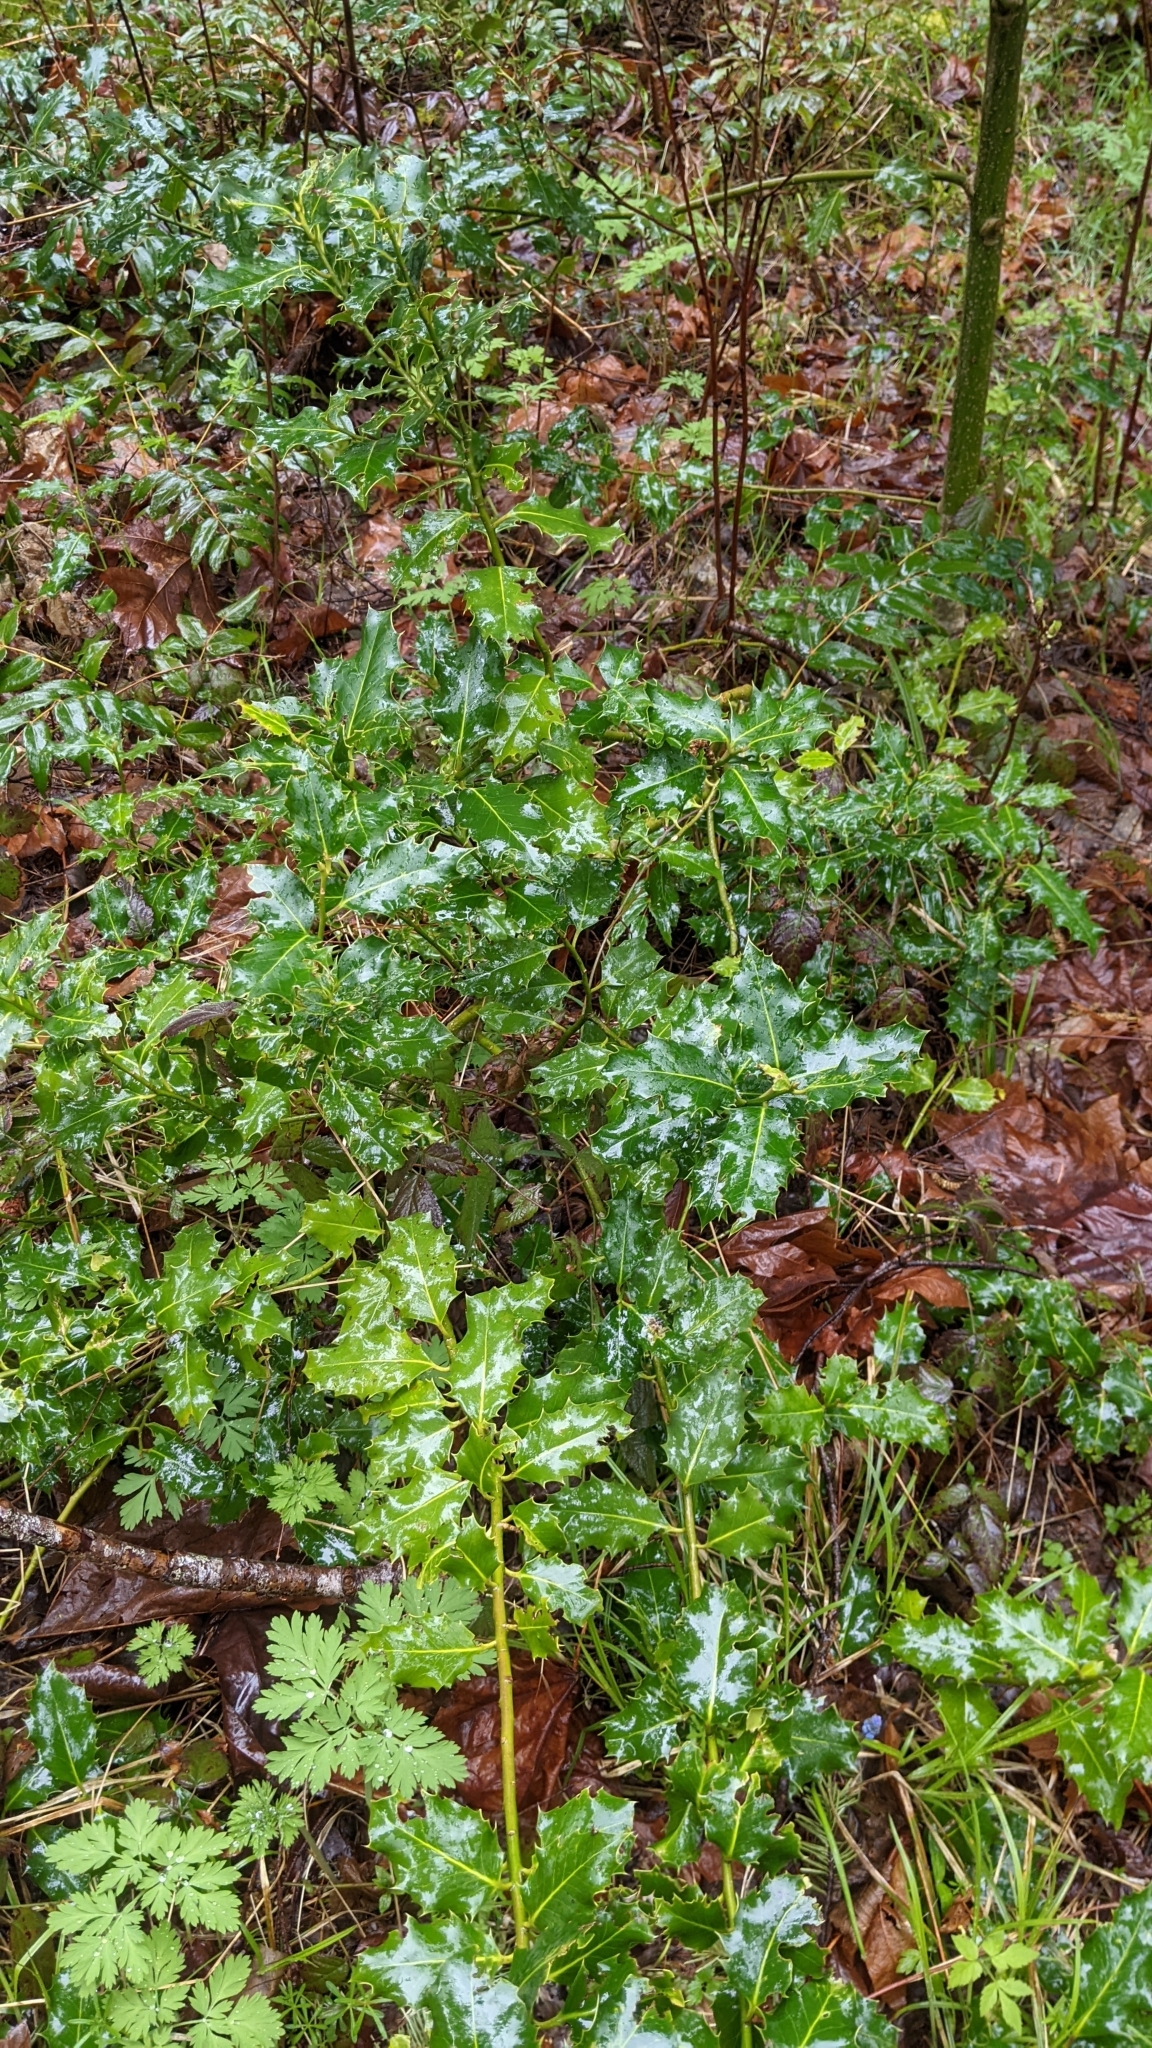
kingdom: Plantae
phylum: Tracheophyta
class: Magnoliopsida
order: Aquifoliales
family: Aquifoliaceae
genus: Ilex
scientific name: Ilex aquifolium
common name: English holly
